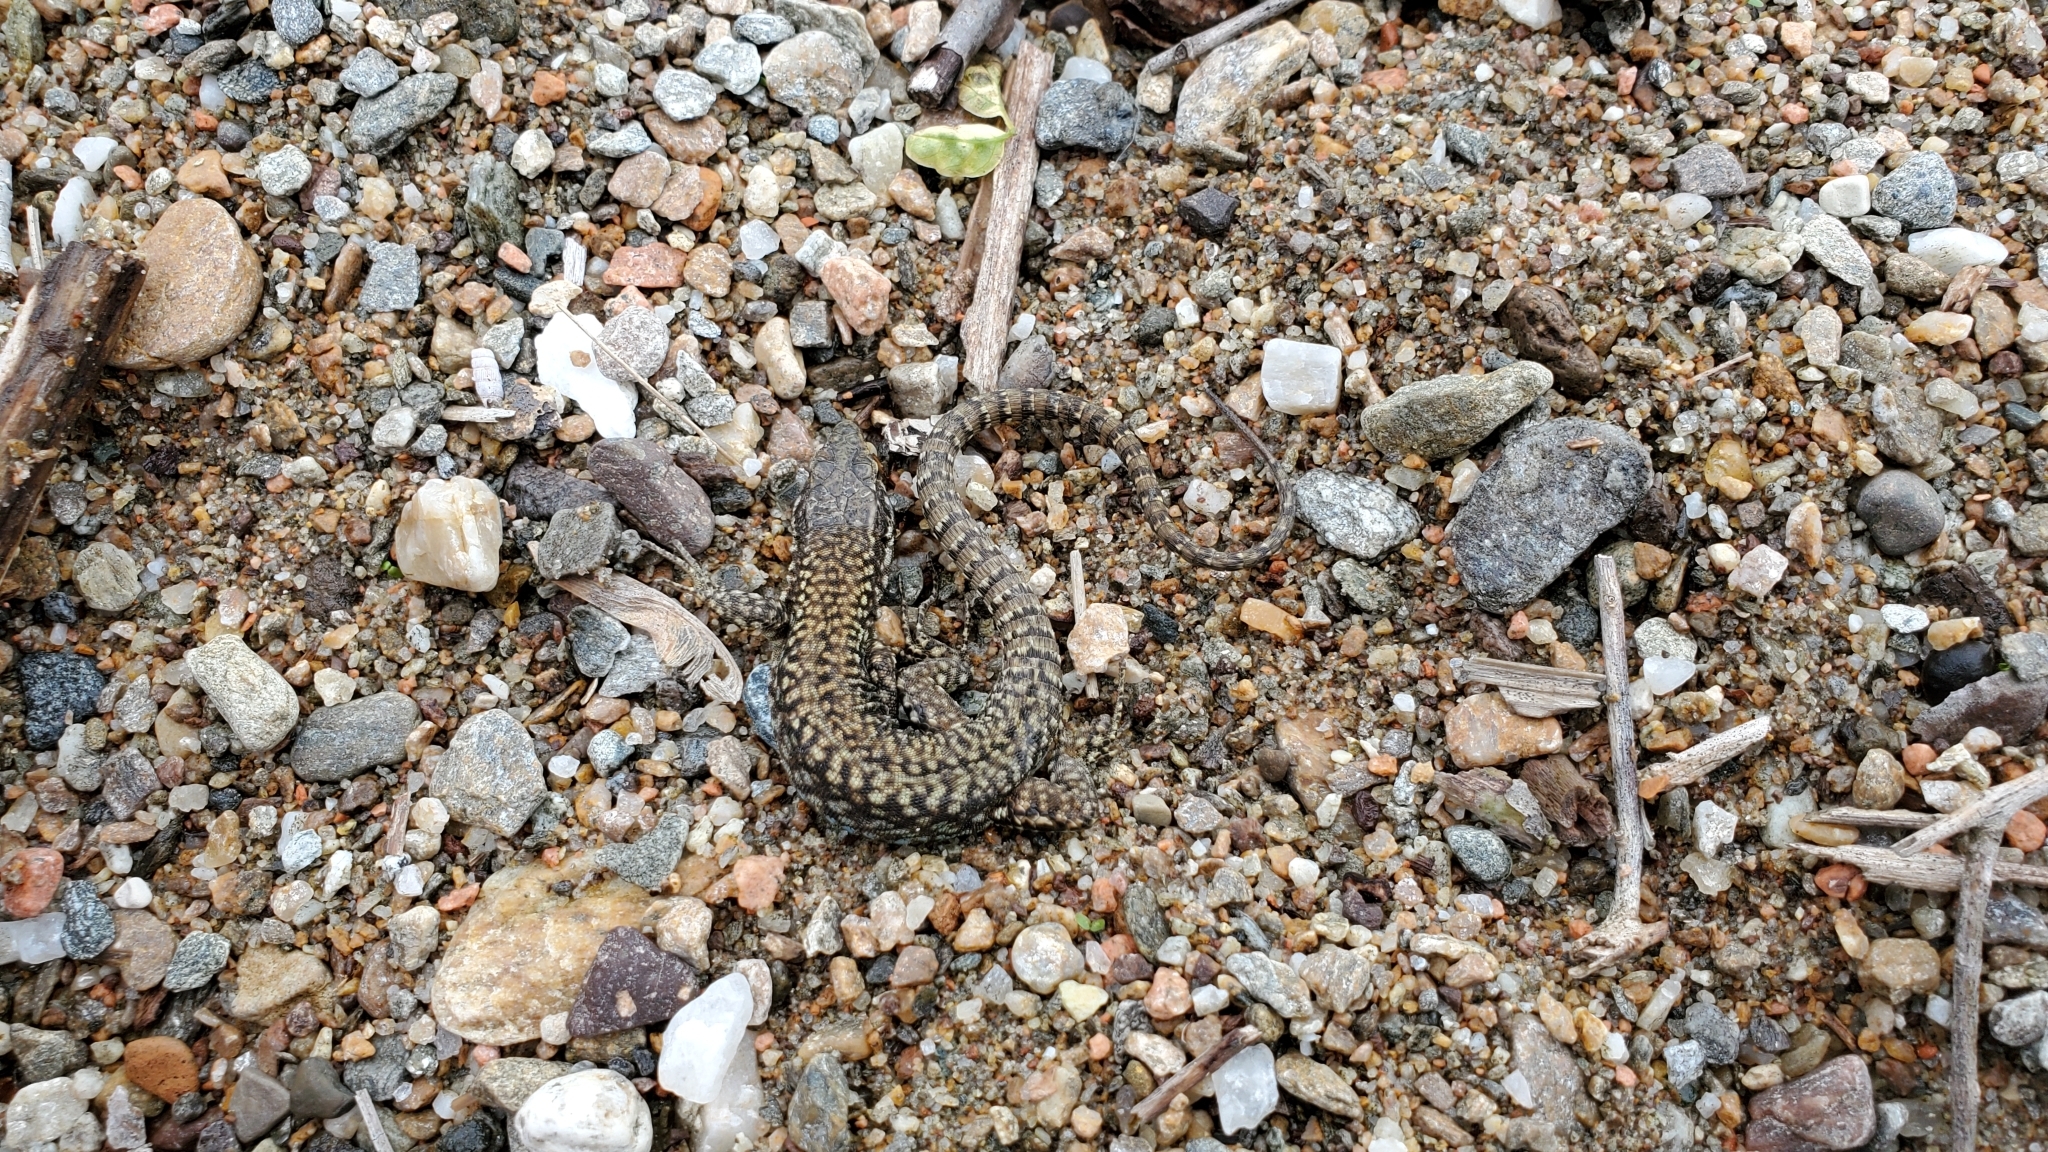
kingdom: Animalia
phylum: Chordata
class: Squamata
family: Lacertidae
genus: Podarcis
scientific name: Podarcis muralis
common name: Common wall lizard
